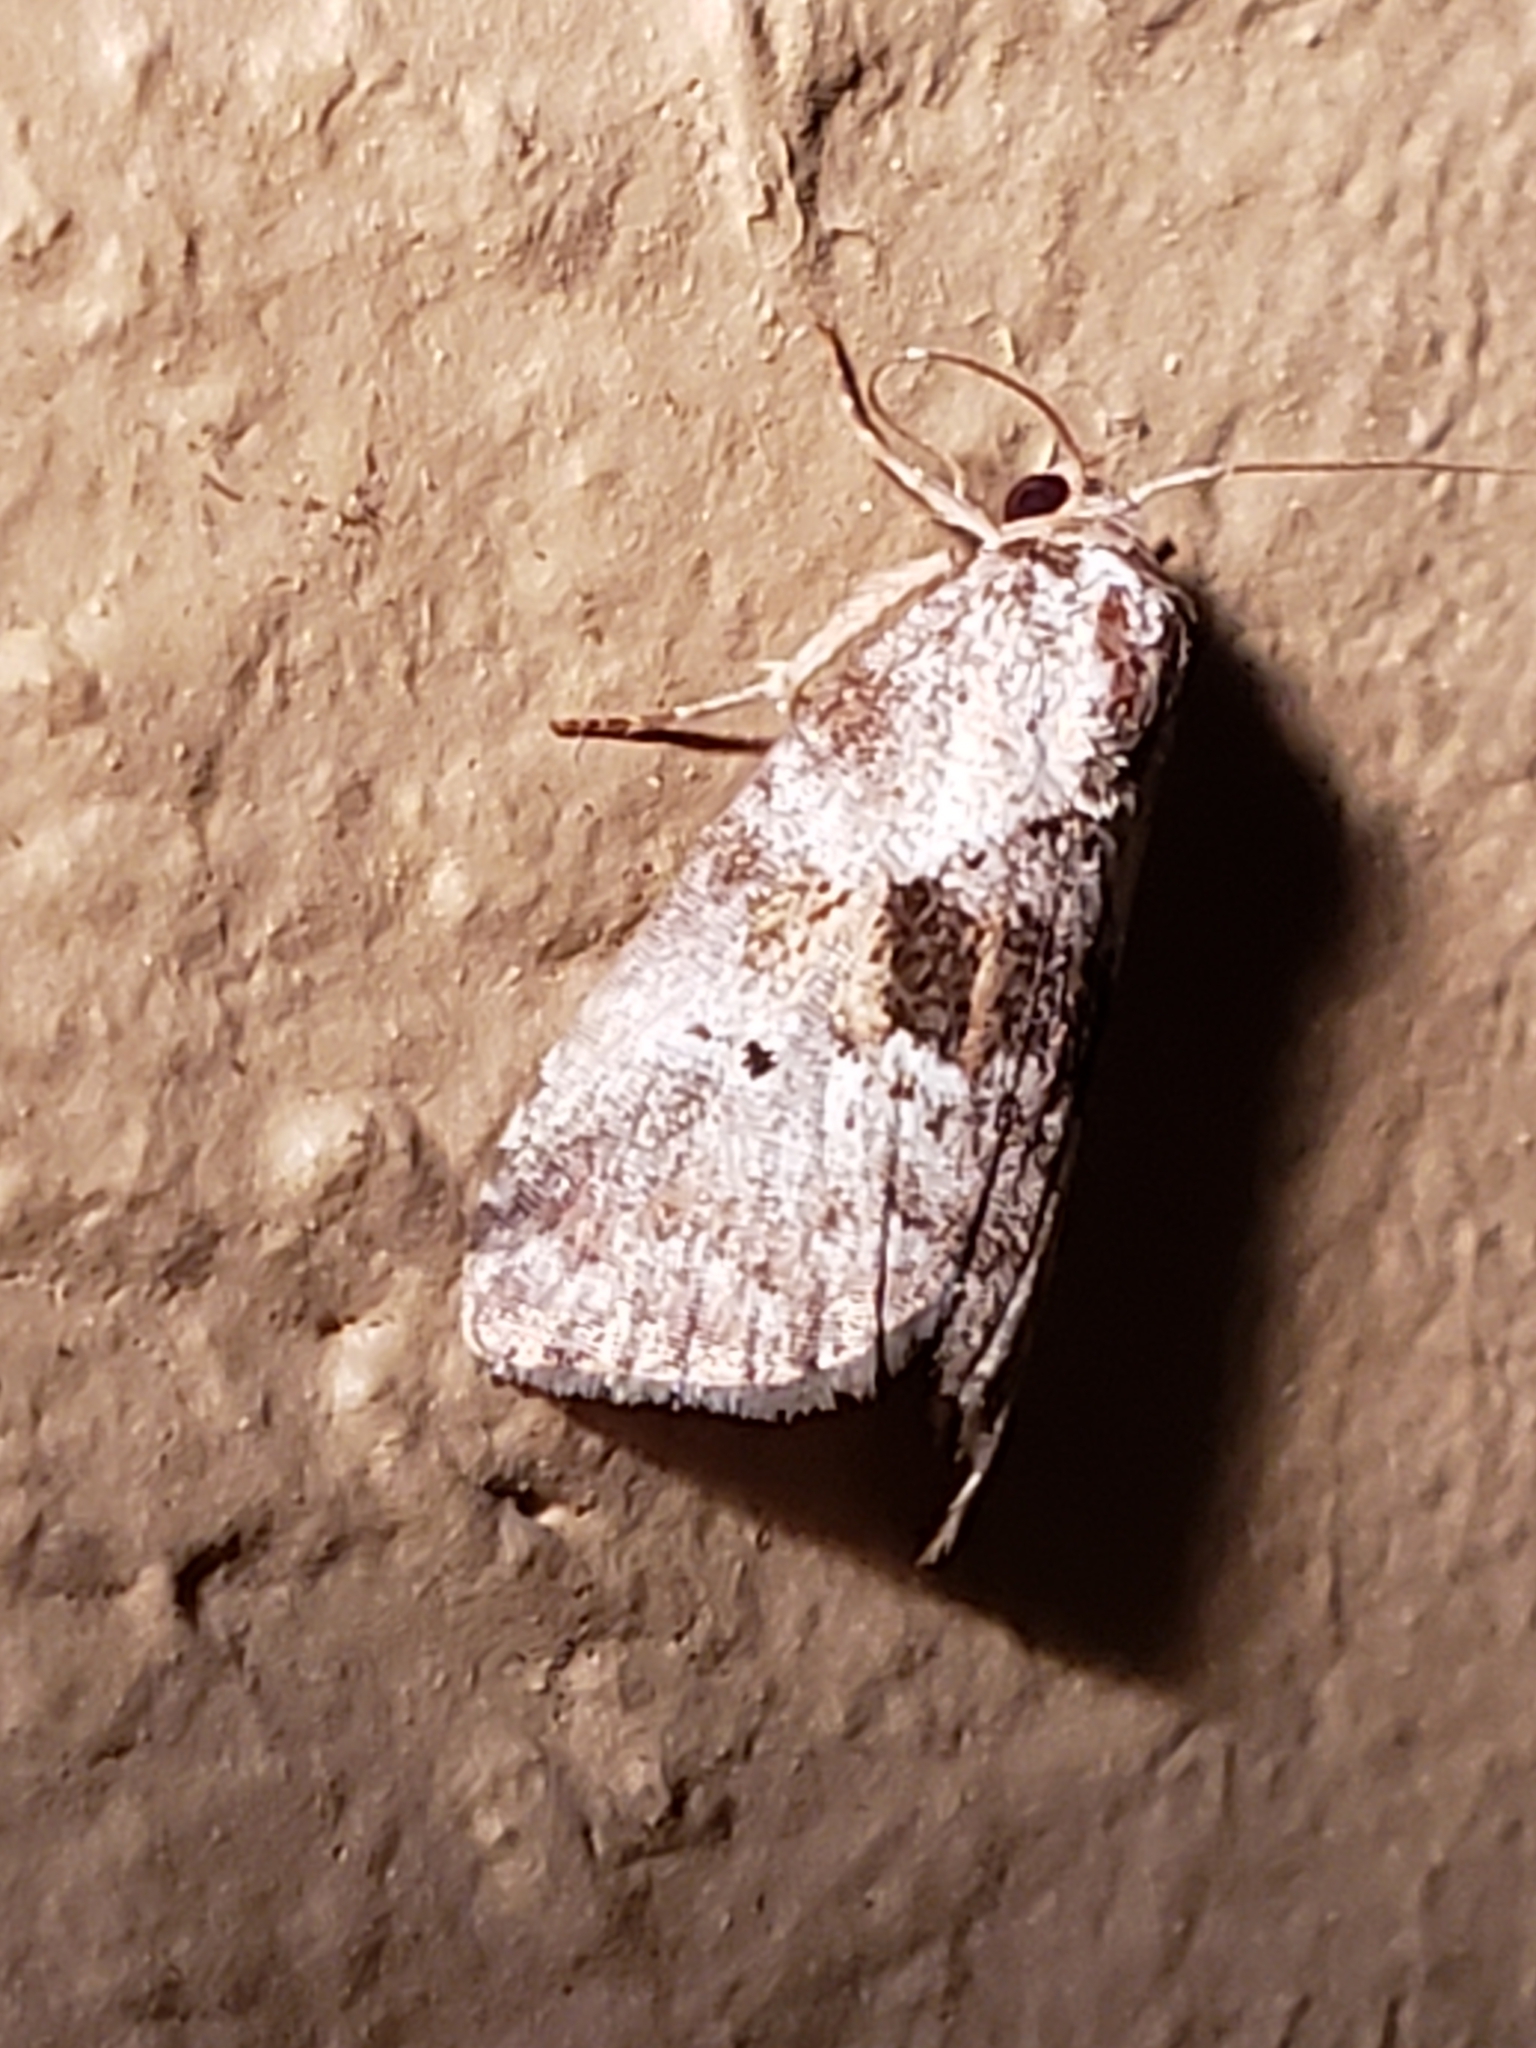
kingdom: Animalia
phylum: Arthropoda
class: Insecta
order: Lepidoptera
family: Erebidae
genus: Hyperstrotia
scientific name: Hyperstrotia secta
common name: Black-patched graylet
